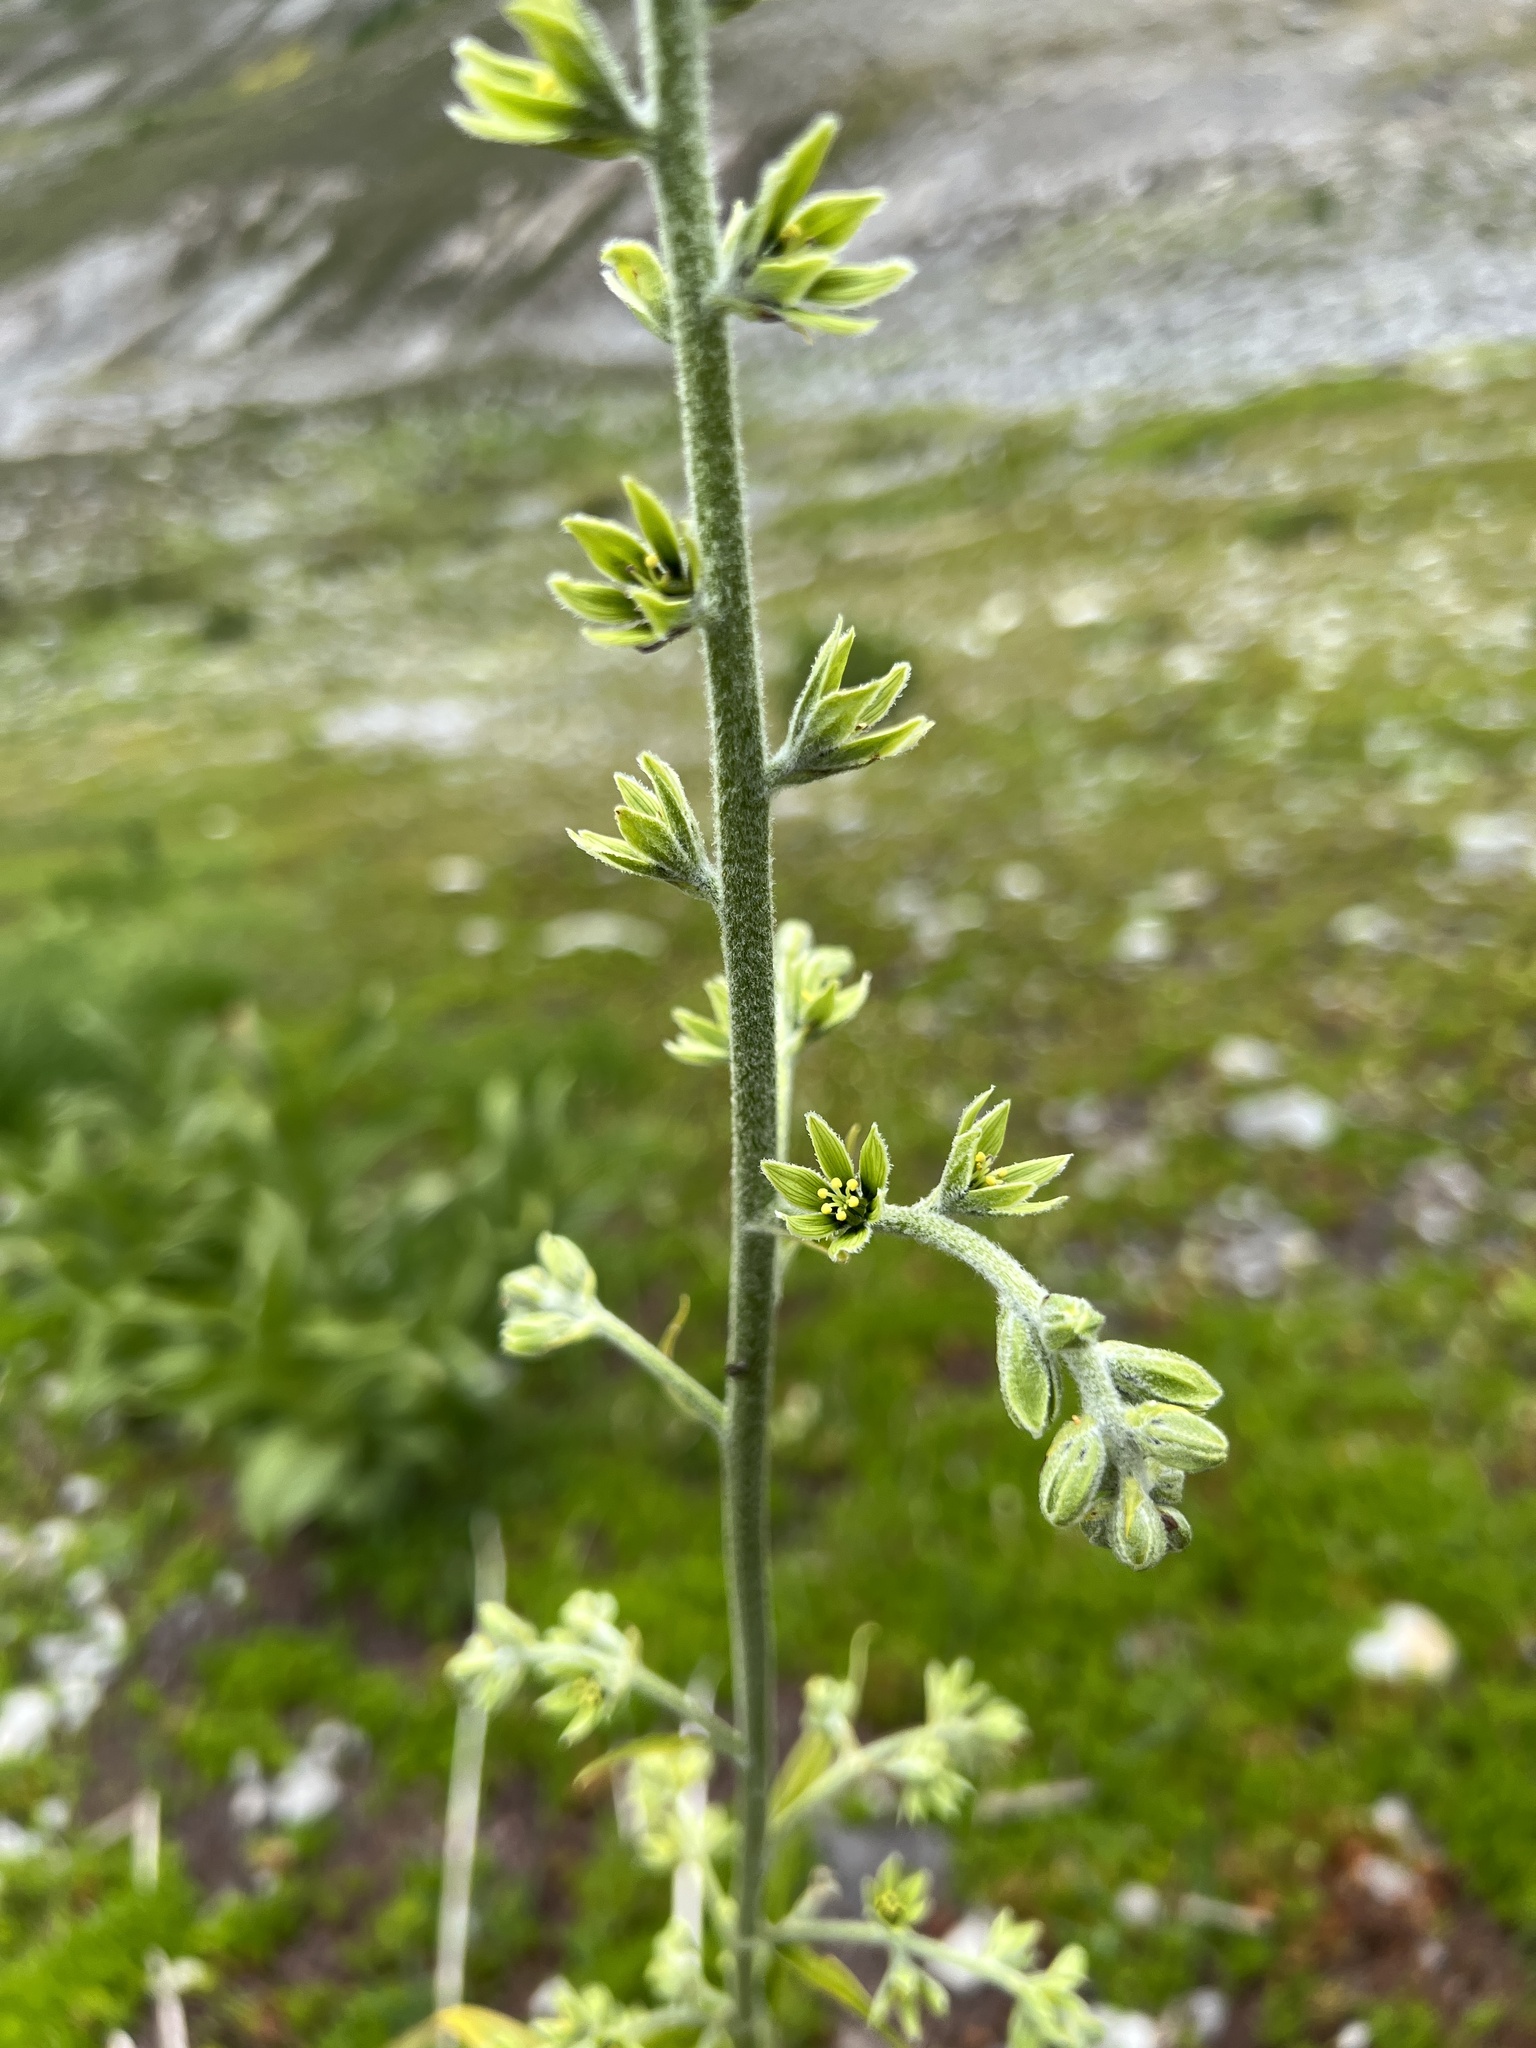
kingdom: Plantae
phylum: Tracheophyta
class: Liliopsida
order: Liliales
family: Melanthiaceae
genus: Veratrum
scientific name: Veratrum viride
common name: American false hellebore
